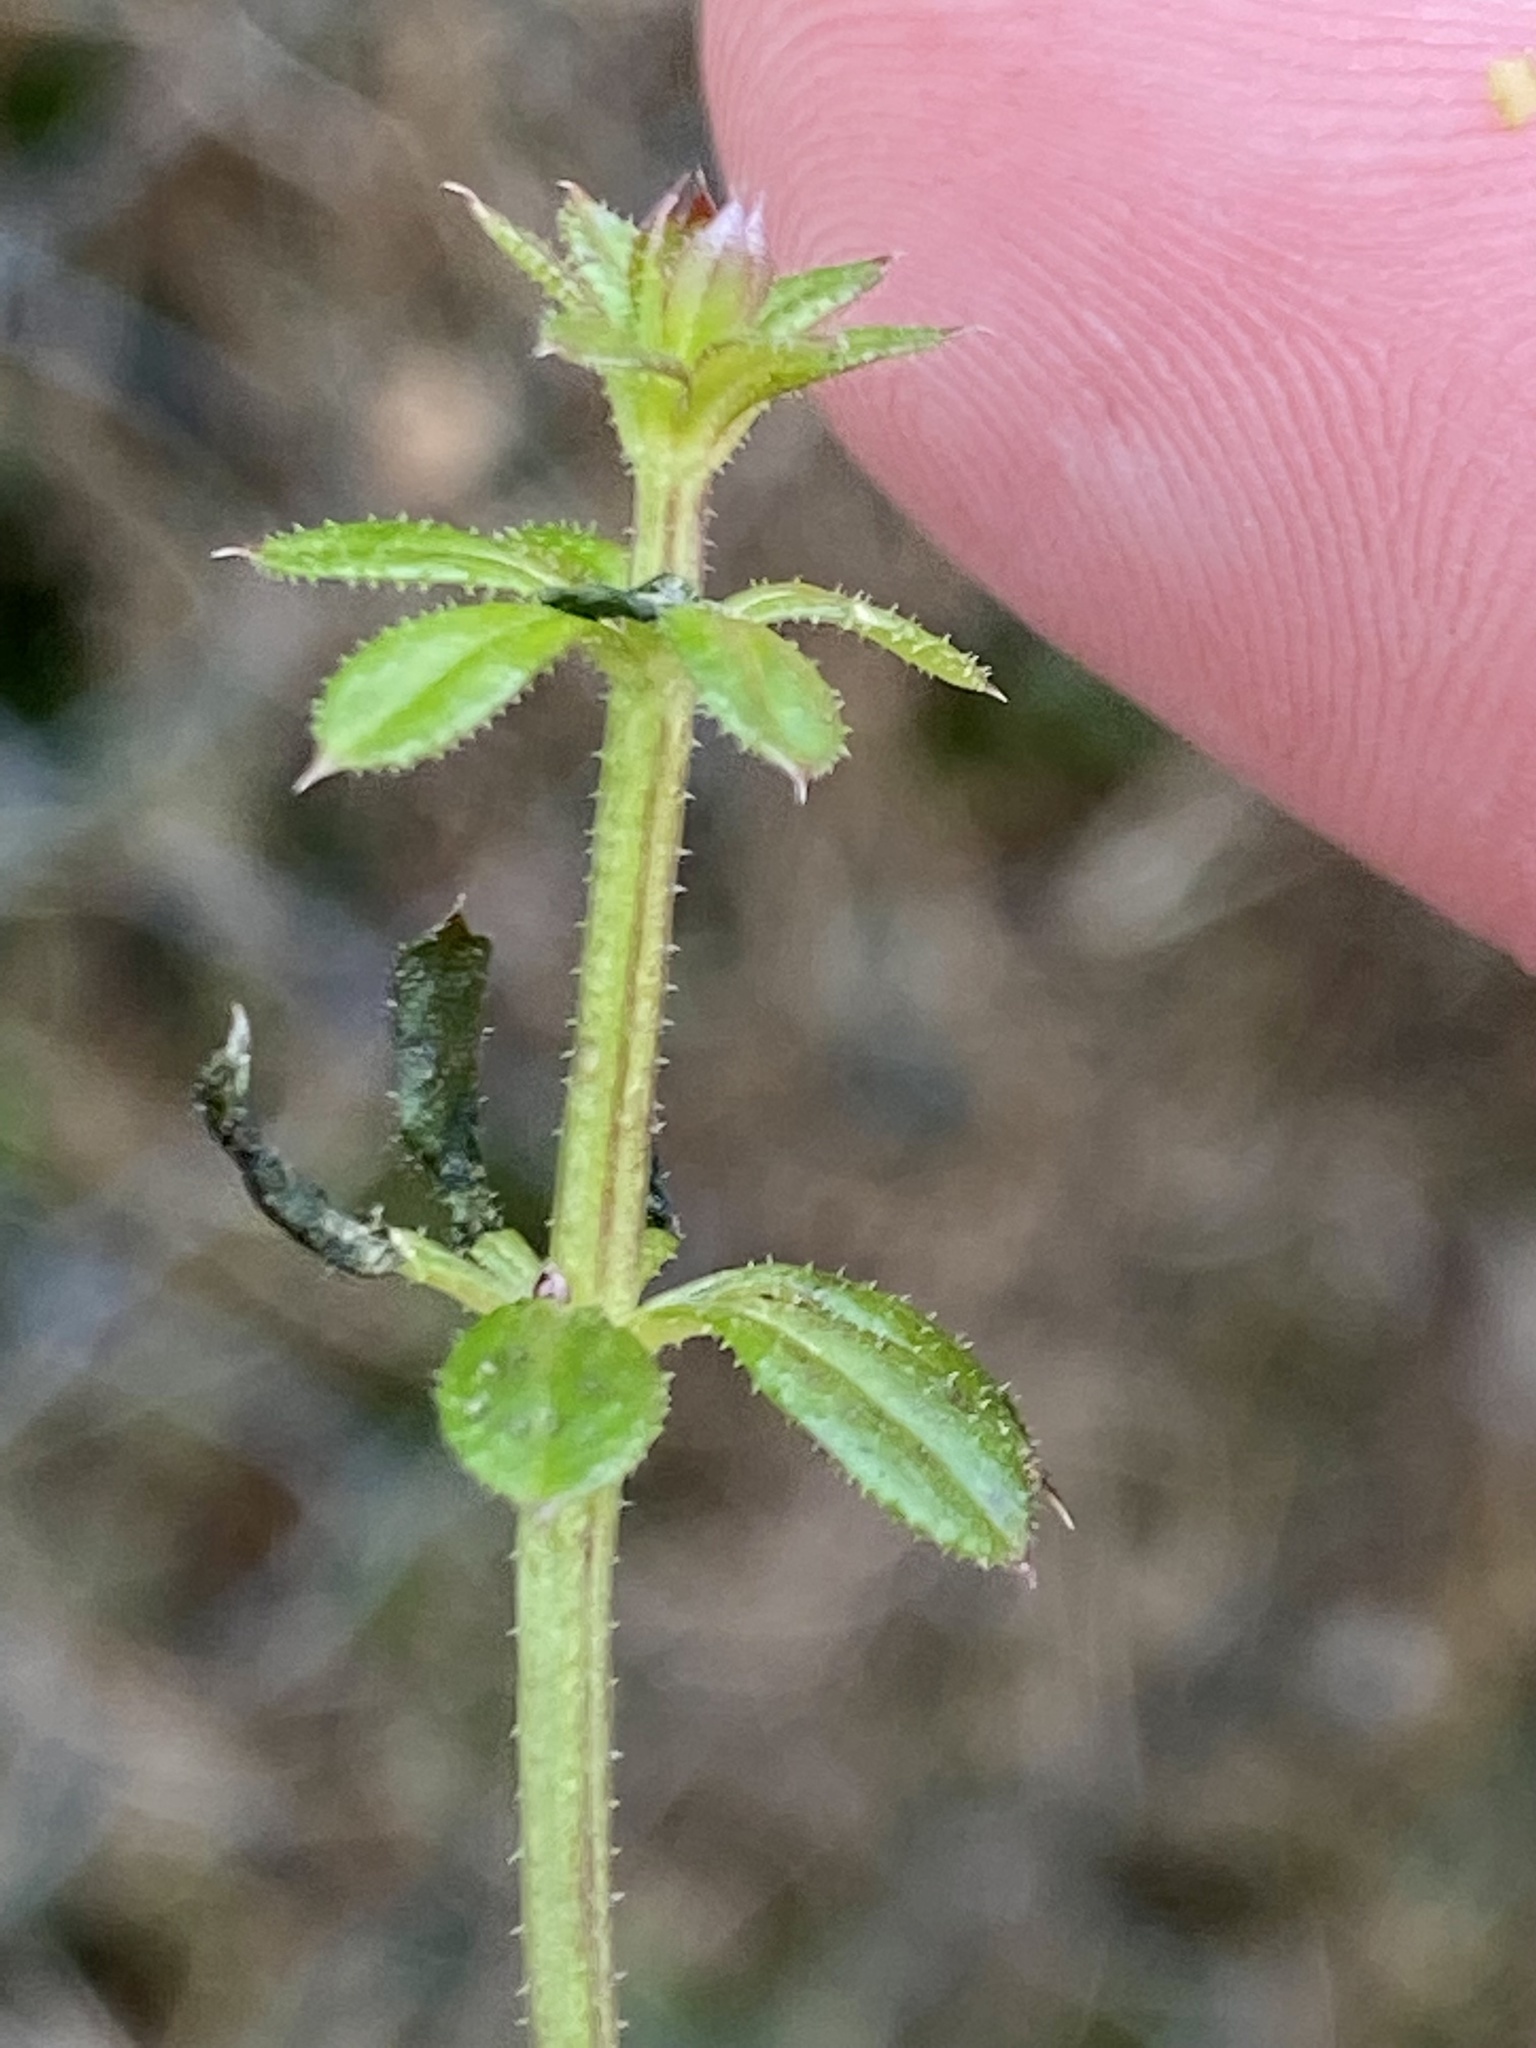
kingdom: Plantae
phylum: Tracheophyta
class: Magnoliopsida
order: Gentianales
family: Rubiaceae
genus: Galium
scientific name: Galium aparine
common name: Cleavers
